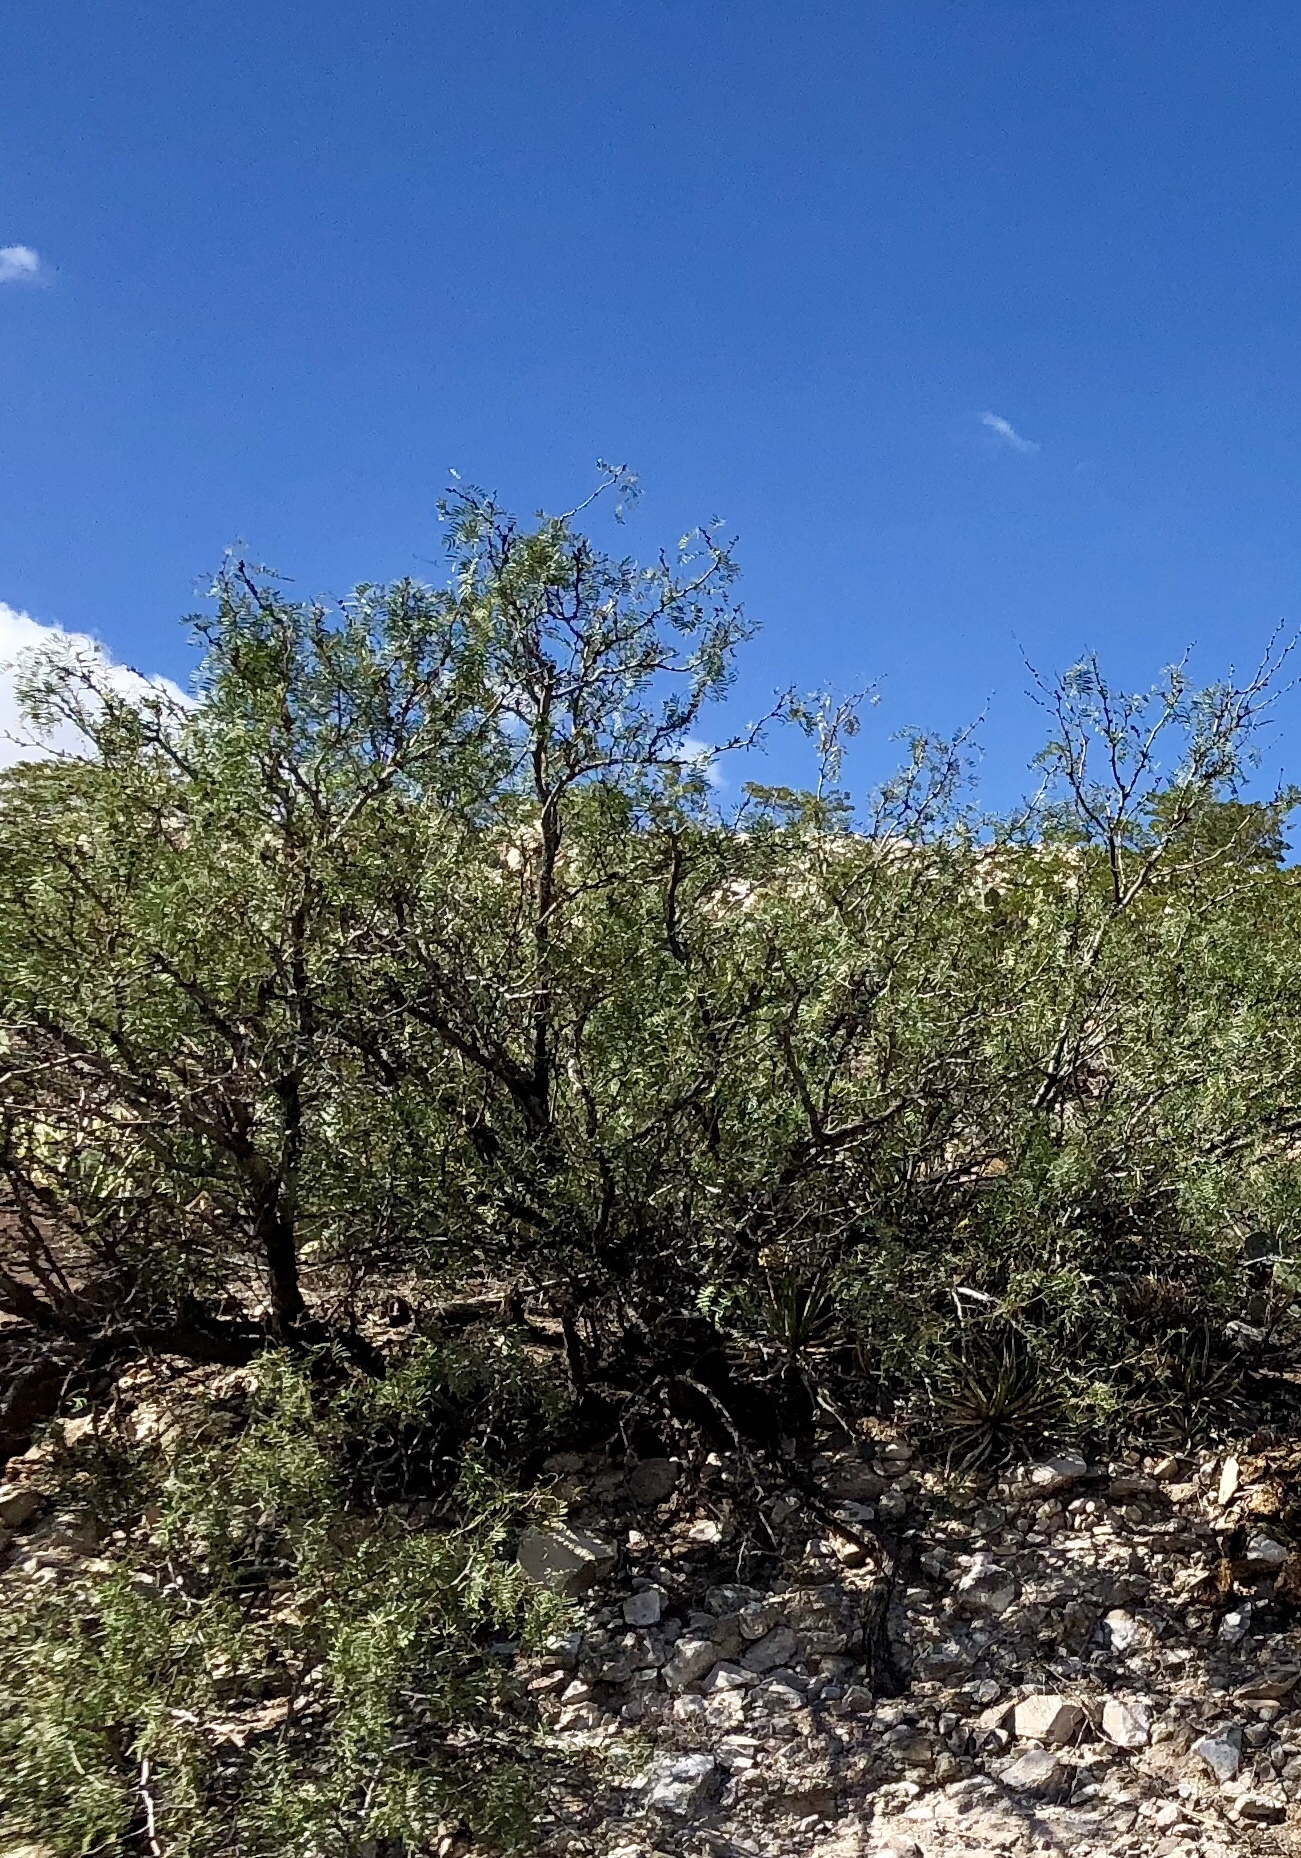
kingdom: Plantae
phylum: Tracheophyta
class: Magnoliopsida
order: Fabales
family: Fabaceae
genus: Prosopis
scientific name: Prosopis glandulosa
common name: Honey mesquite
